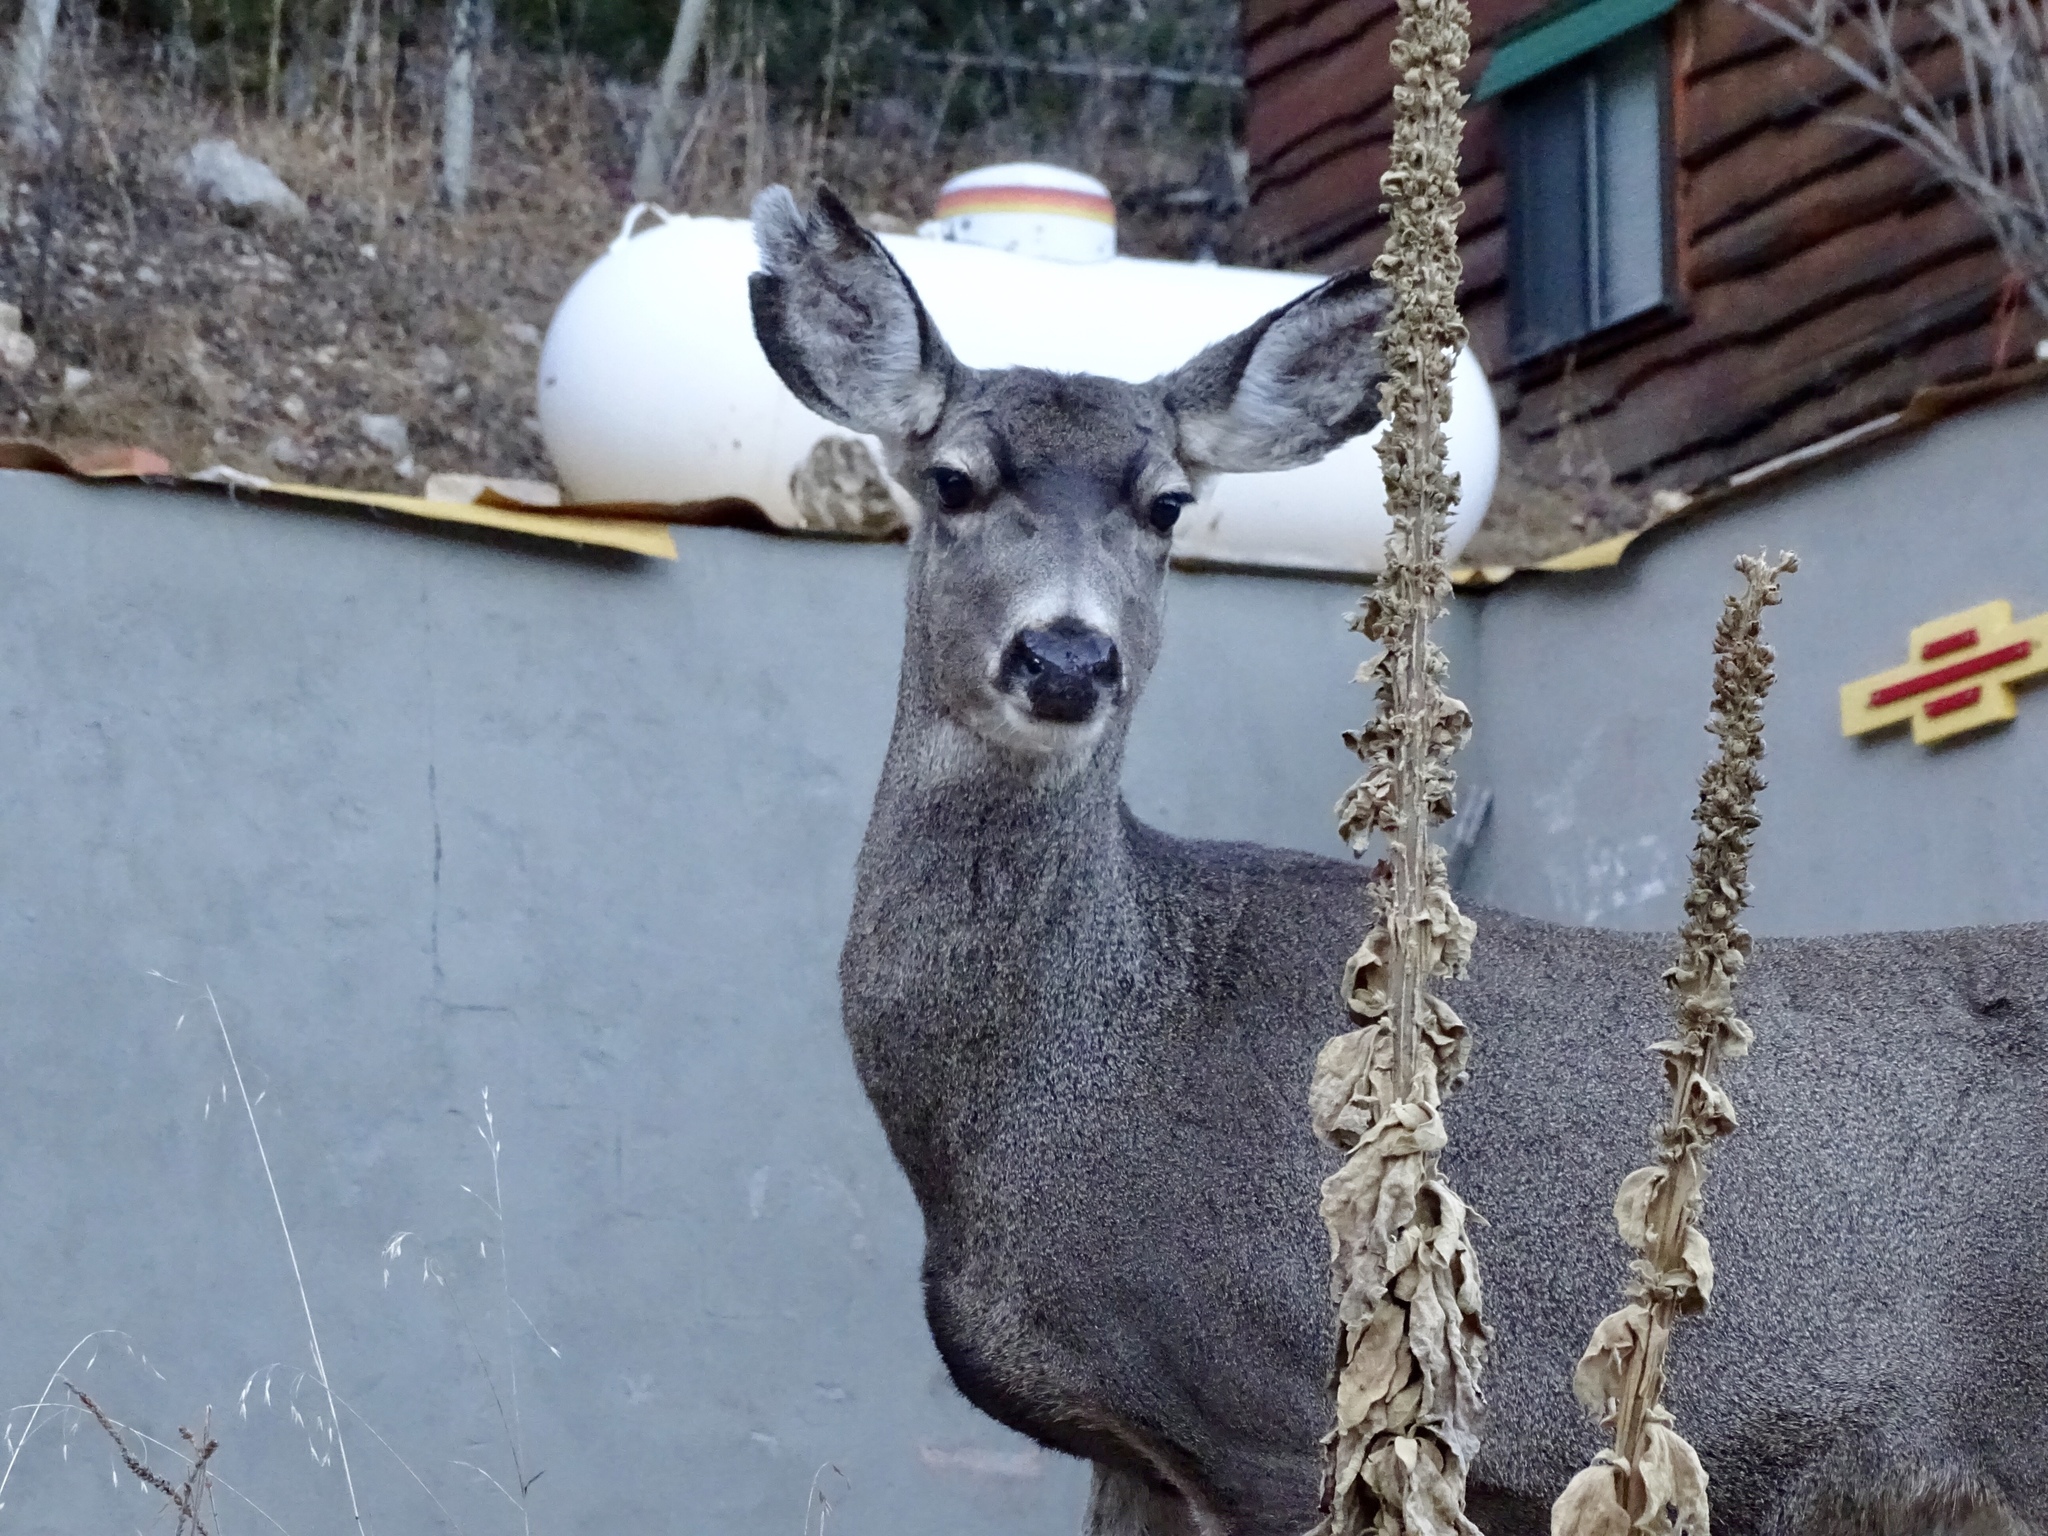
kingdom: Animalia
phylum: Chordata
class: Mammalia
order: Artiodactyla
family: Cervidae
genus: Odocoileus
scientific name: Odocoileus hemionus
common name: Mule deer
